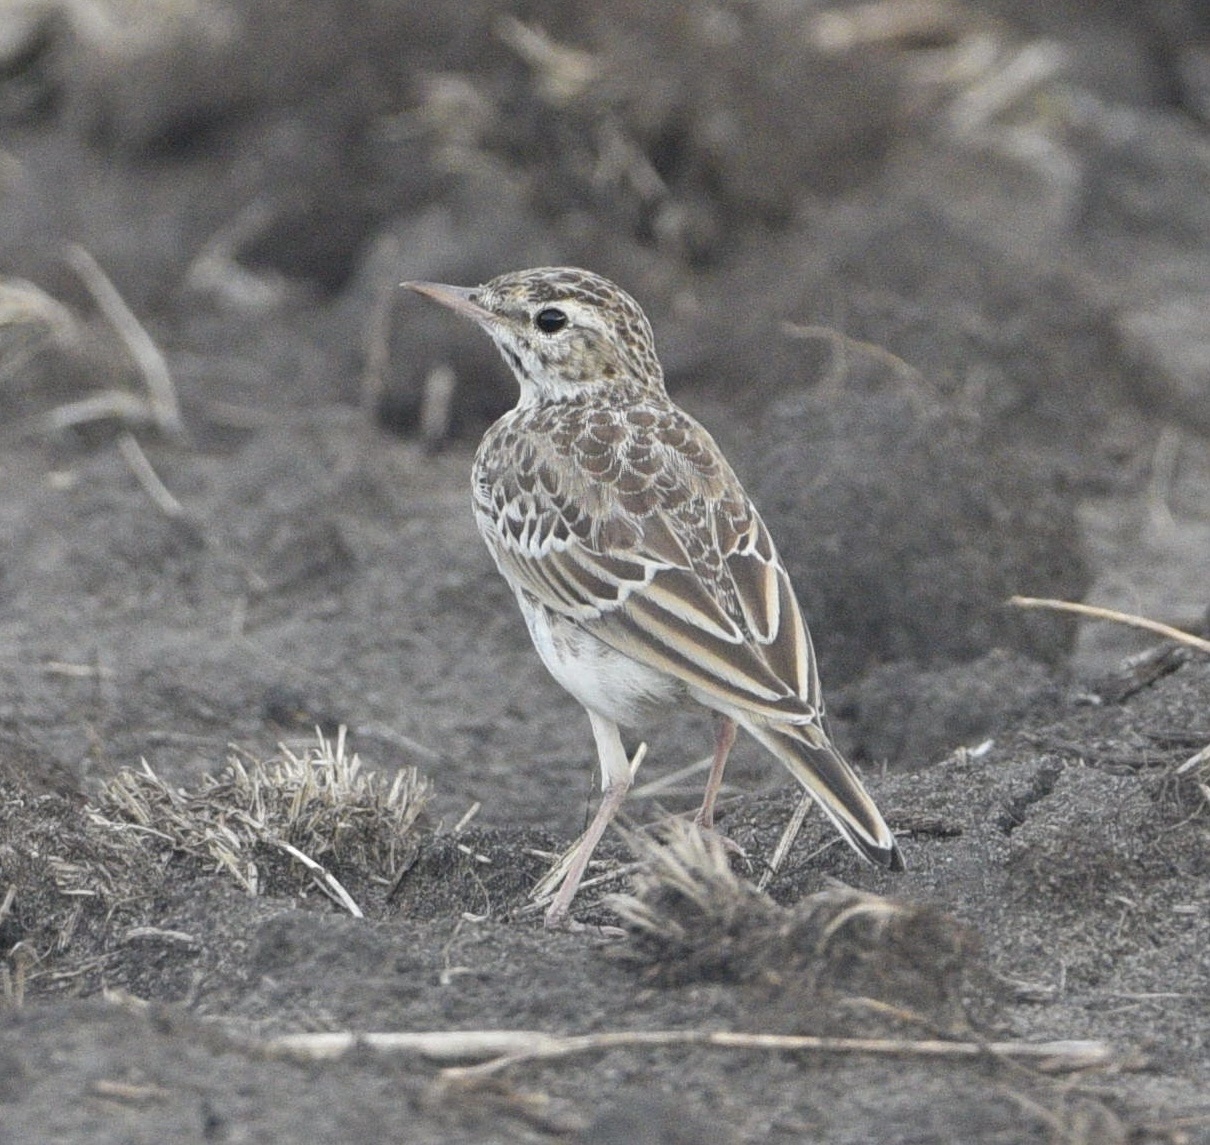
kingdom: Animalia
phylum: Chordata
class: Aves
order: Passeriformes
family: Motacillidae
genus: Anthus
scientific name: Anthus campestris
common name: Tawny pipit
